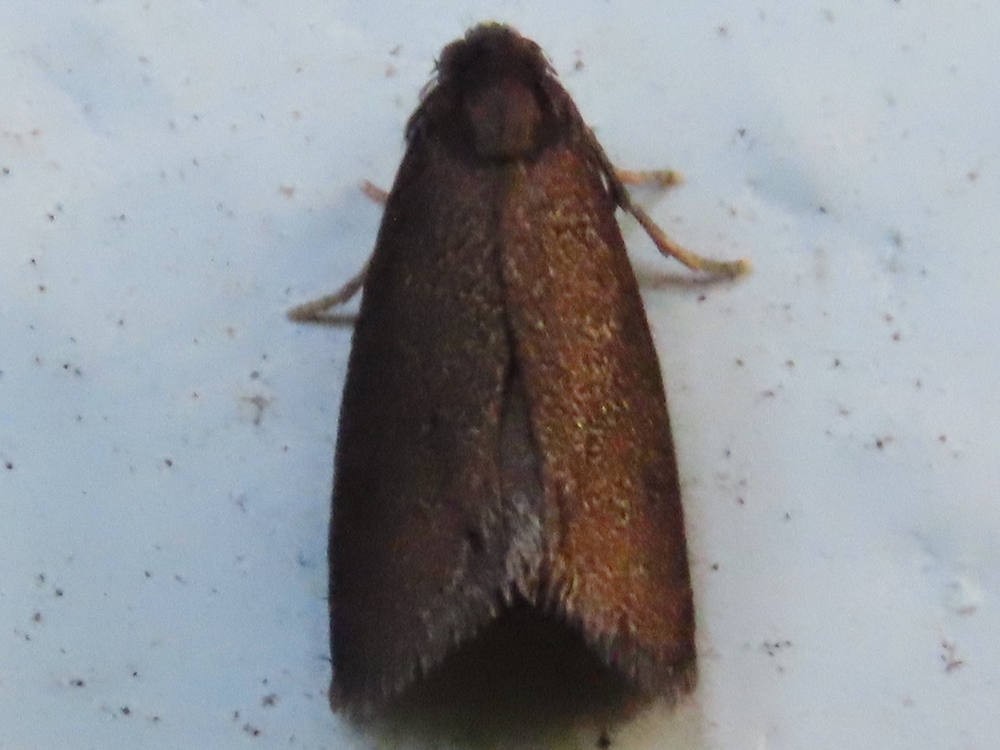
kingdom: Animalia
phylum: Arthropoda
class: Insecta
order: Lepidoptera
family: Psychidae
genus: Psyche
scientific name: Psyche casta
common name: Common sweep
